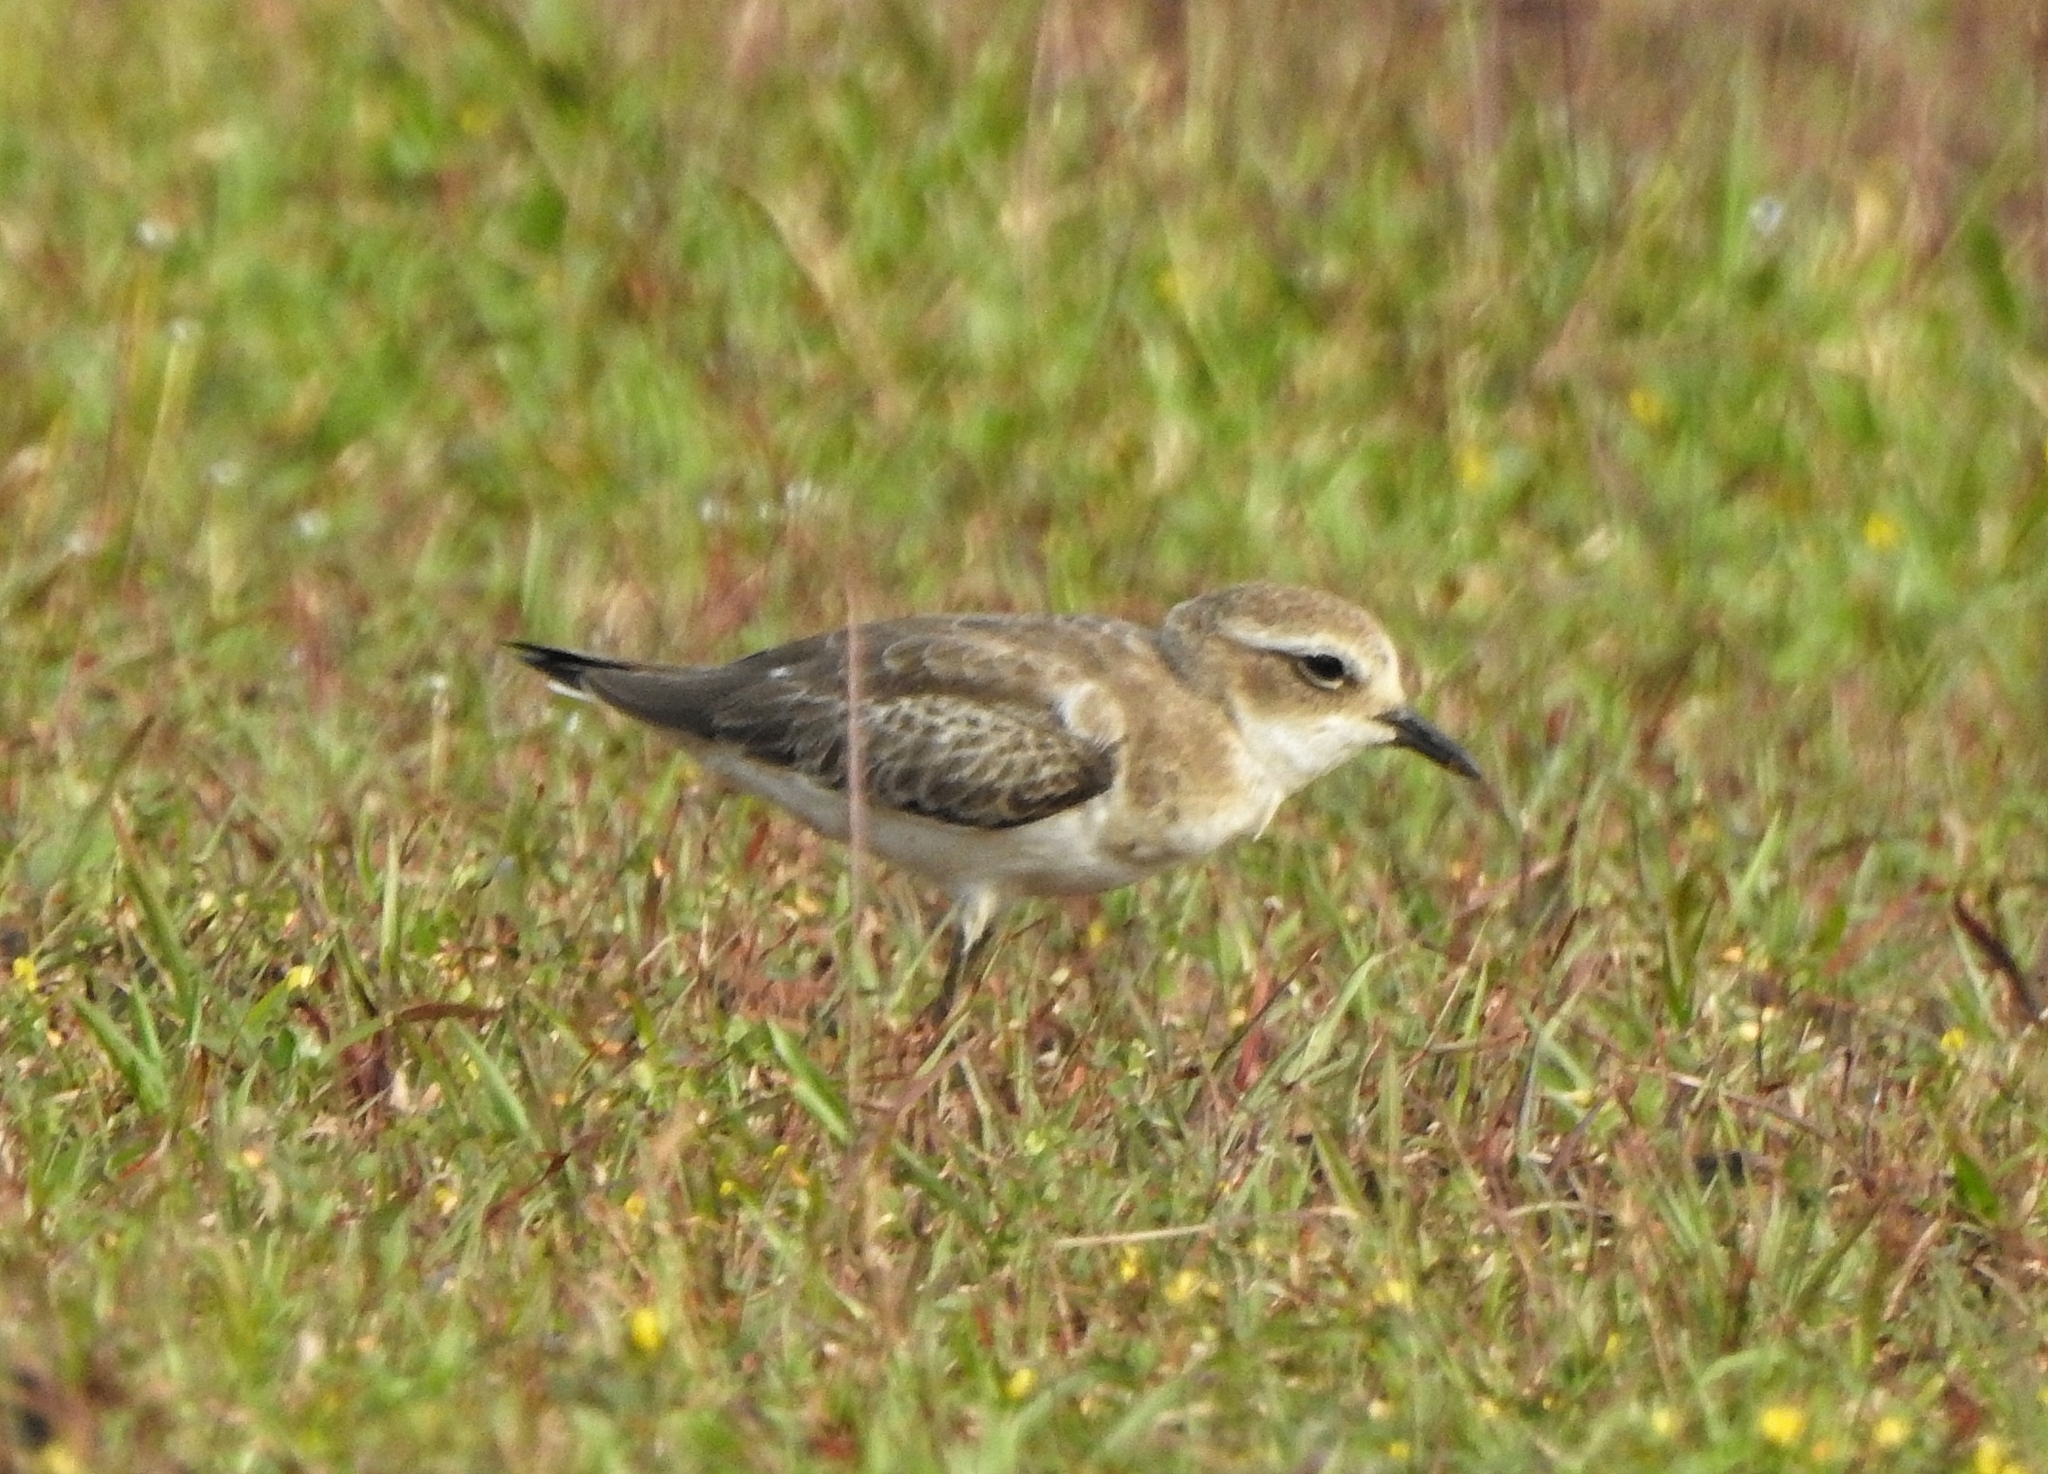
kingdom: Animalia
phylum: Chordata
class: Aves
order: Charadriiformes
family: Charadriidae
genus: Anarhynchus
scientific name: Anarhynchus
